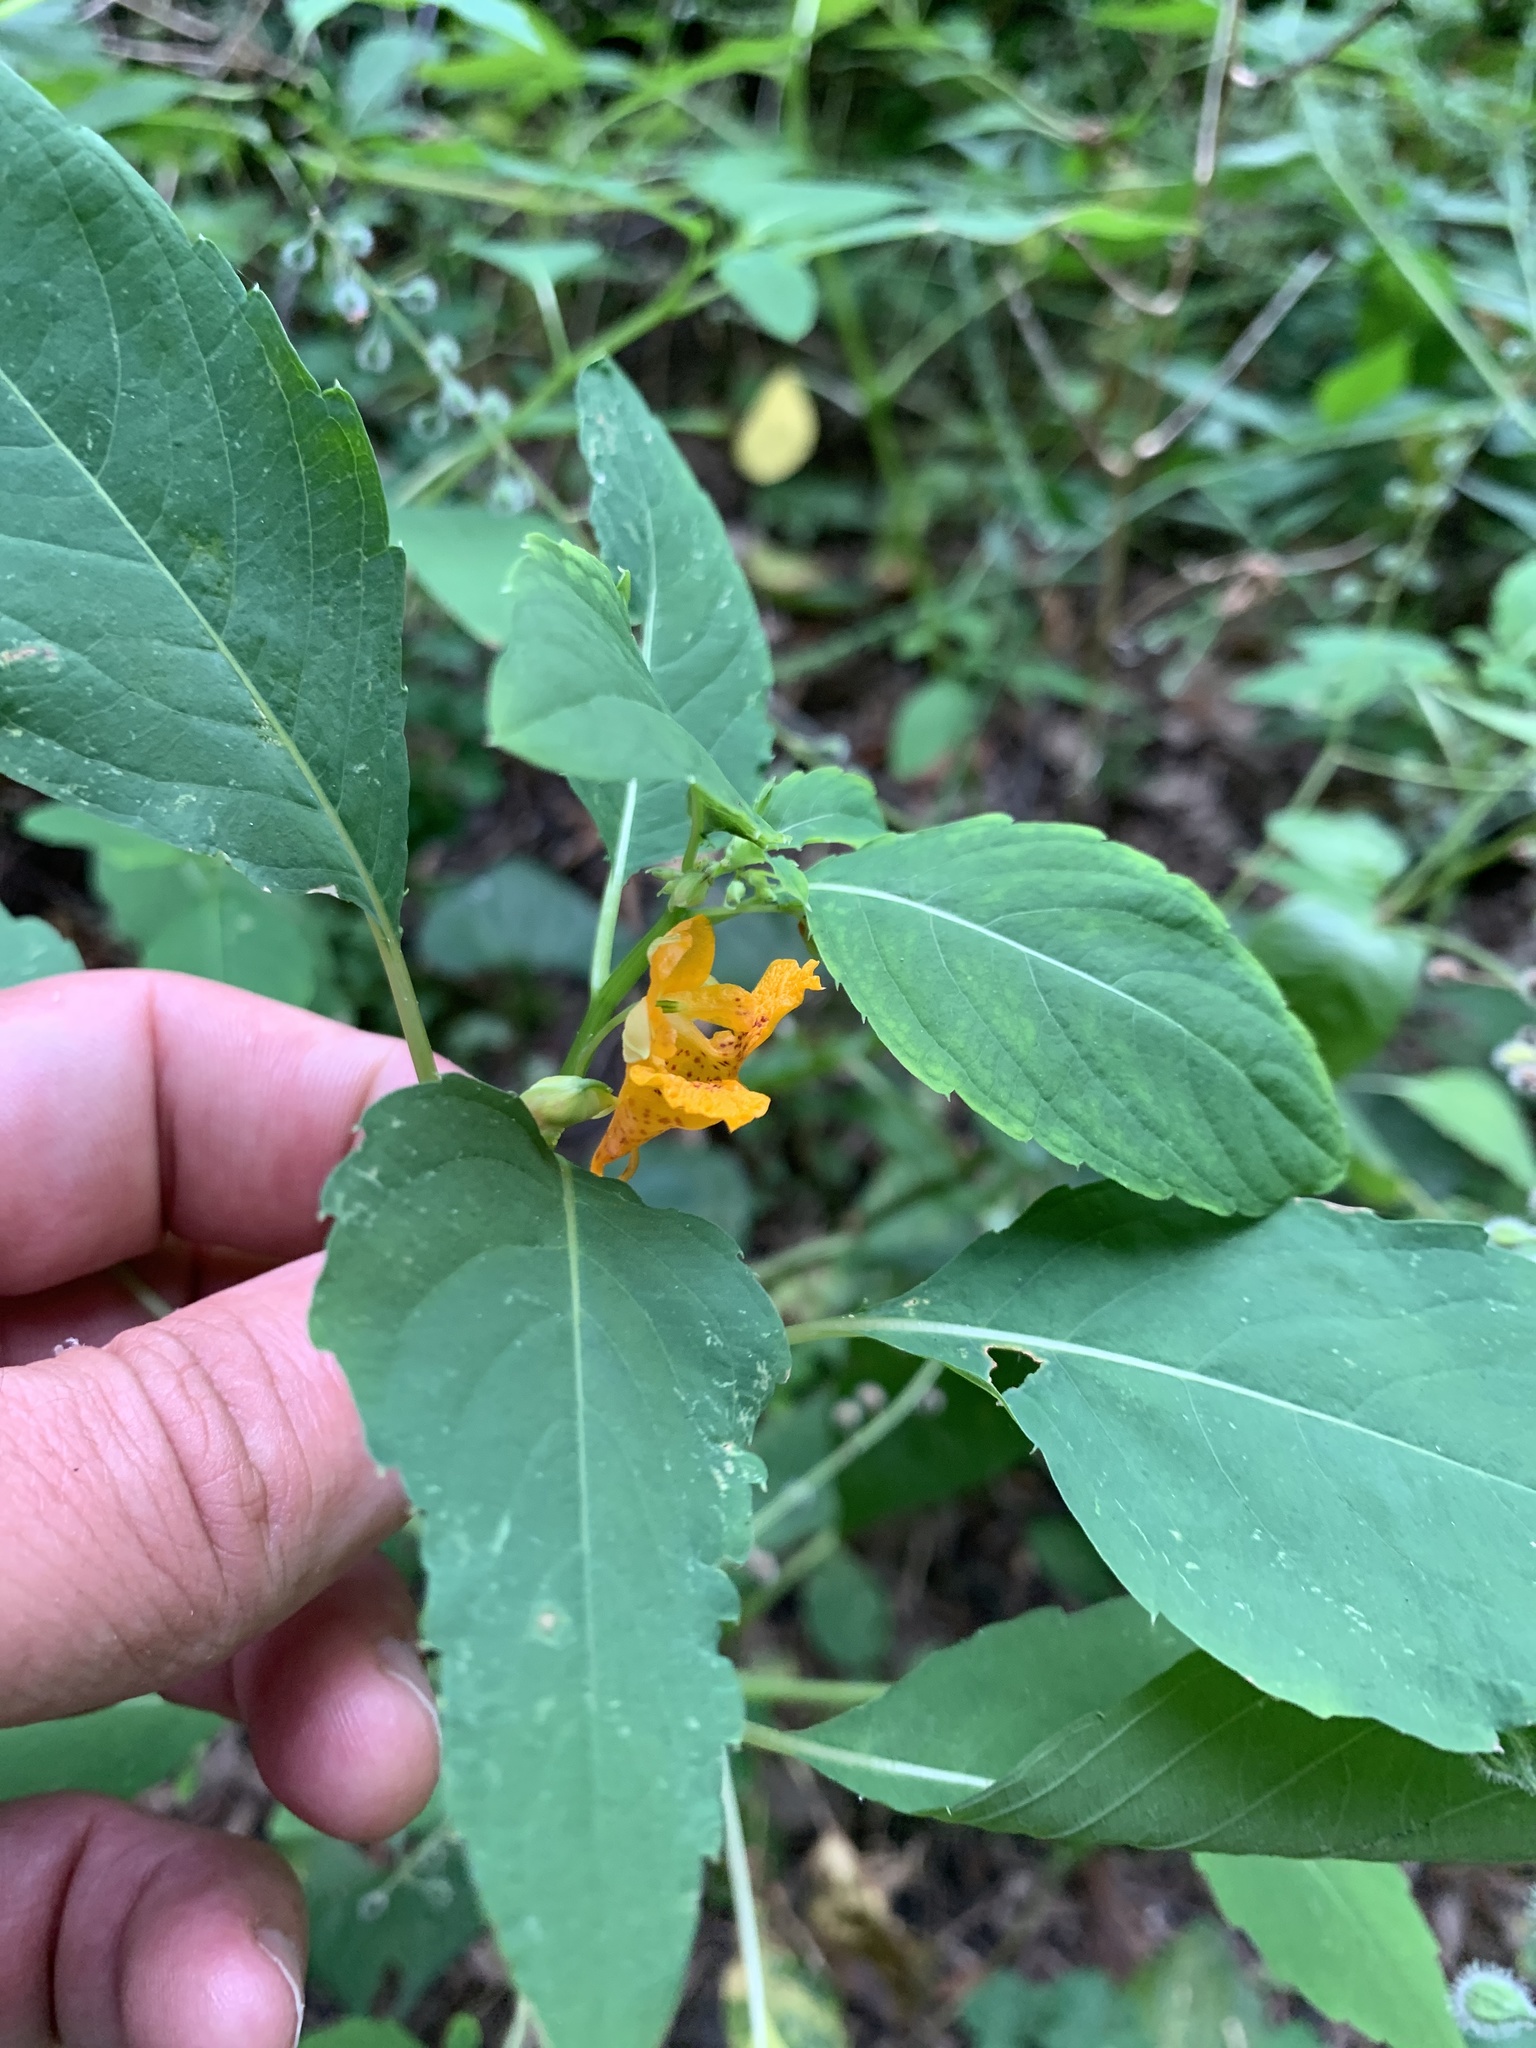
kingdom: Plantae
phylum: Tracheophyta
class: Magnoliopsida
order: Ericales
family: Balsaminaceae
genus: Impatiens
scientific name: Impatiens capensis
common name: Orange balsam
